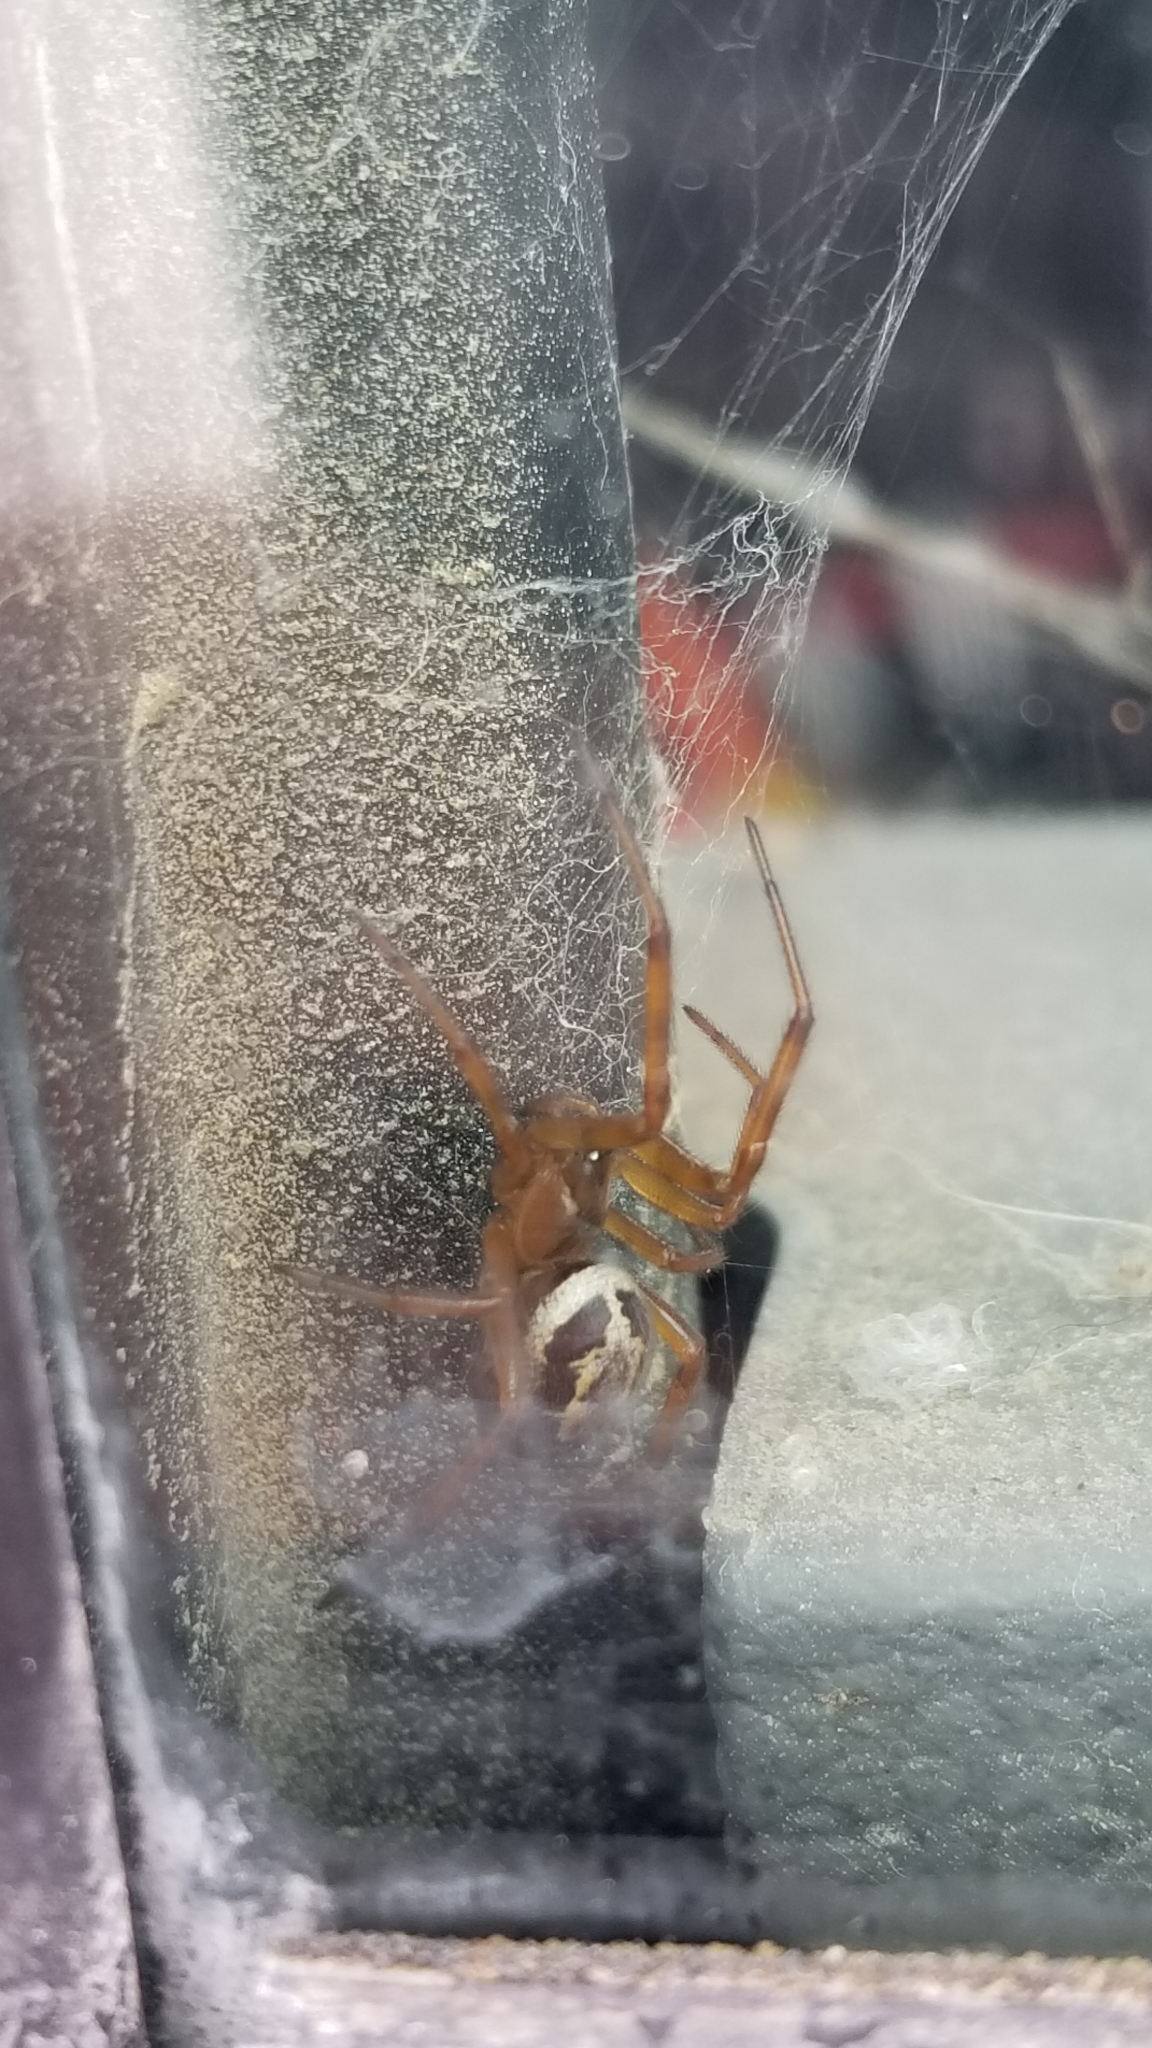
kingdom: Animalia
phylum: Arthropoda
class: Arachnida
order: Araneae
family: Theridiidae
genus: Steatoda
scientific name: Steatoda nobilis
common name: Cobweb weaver
